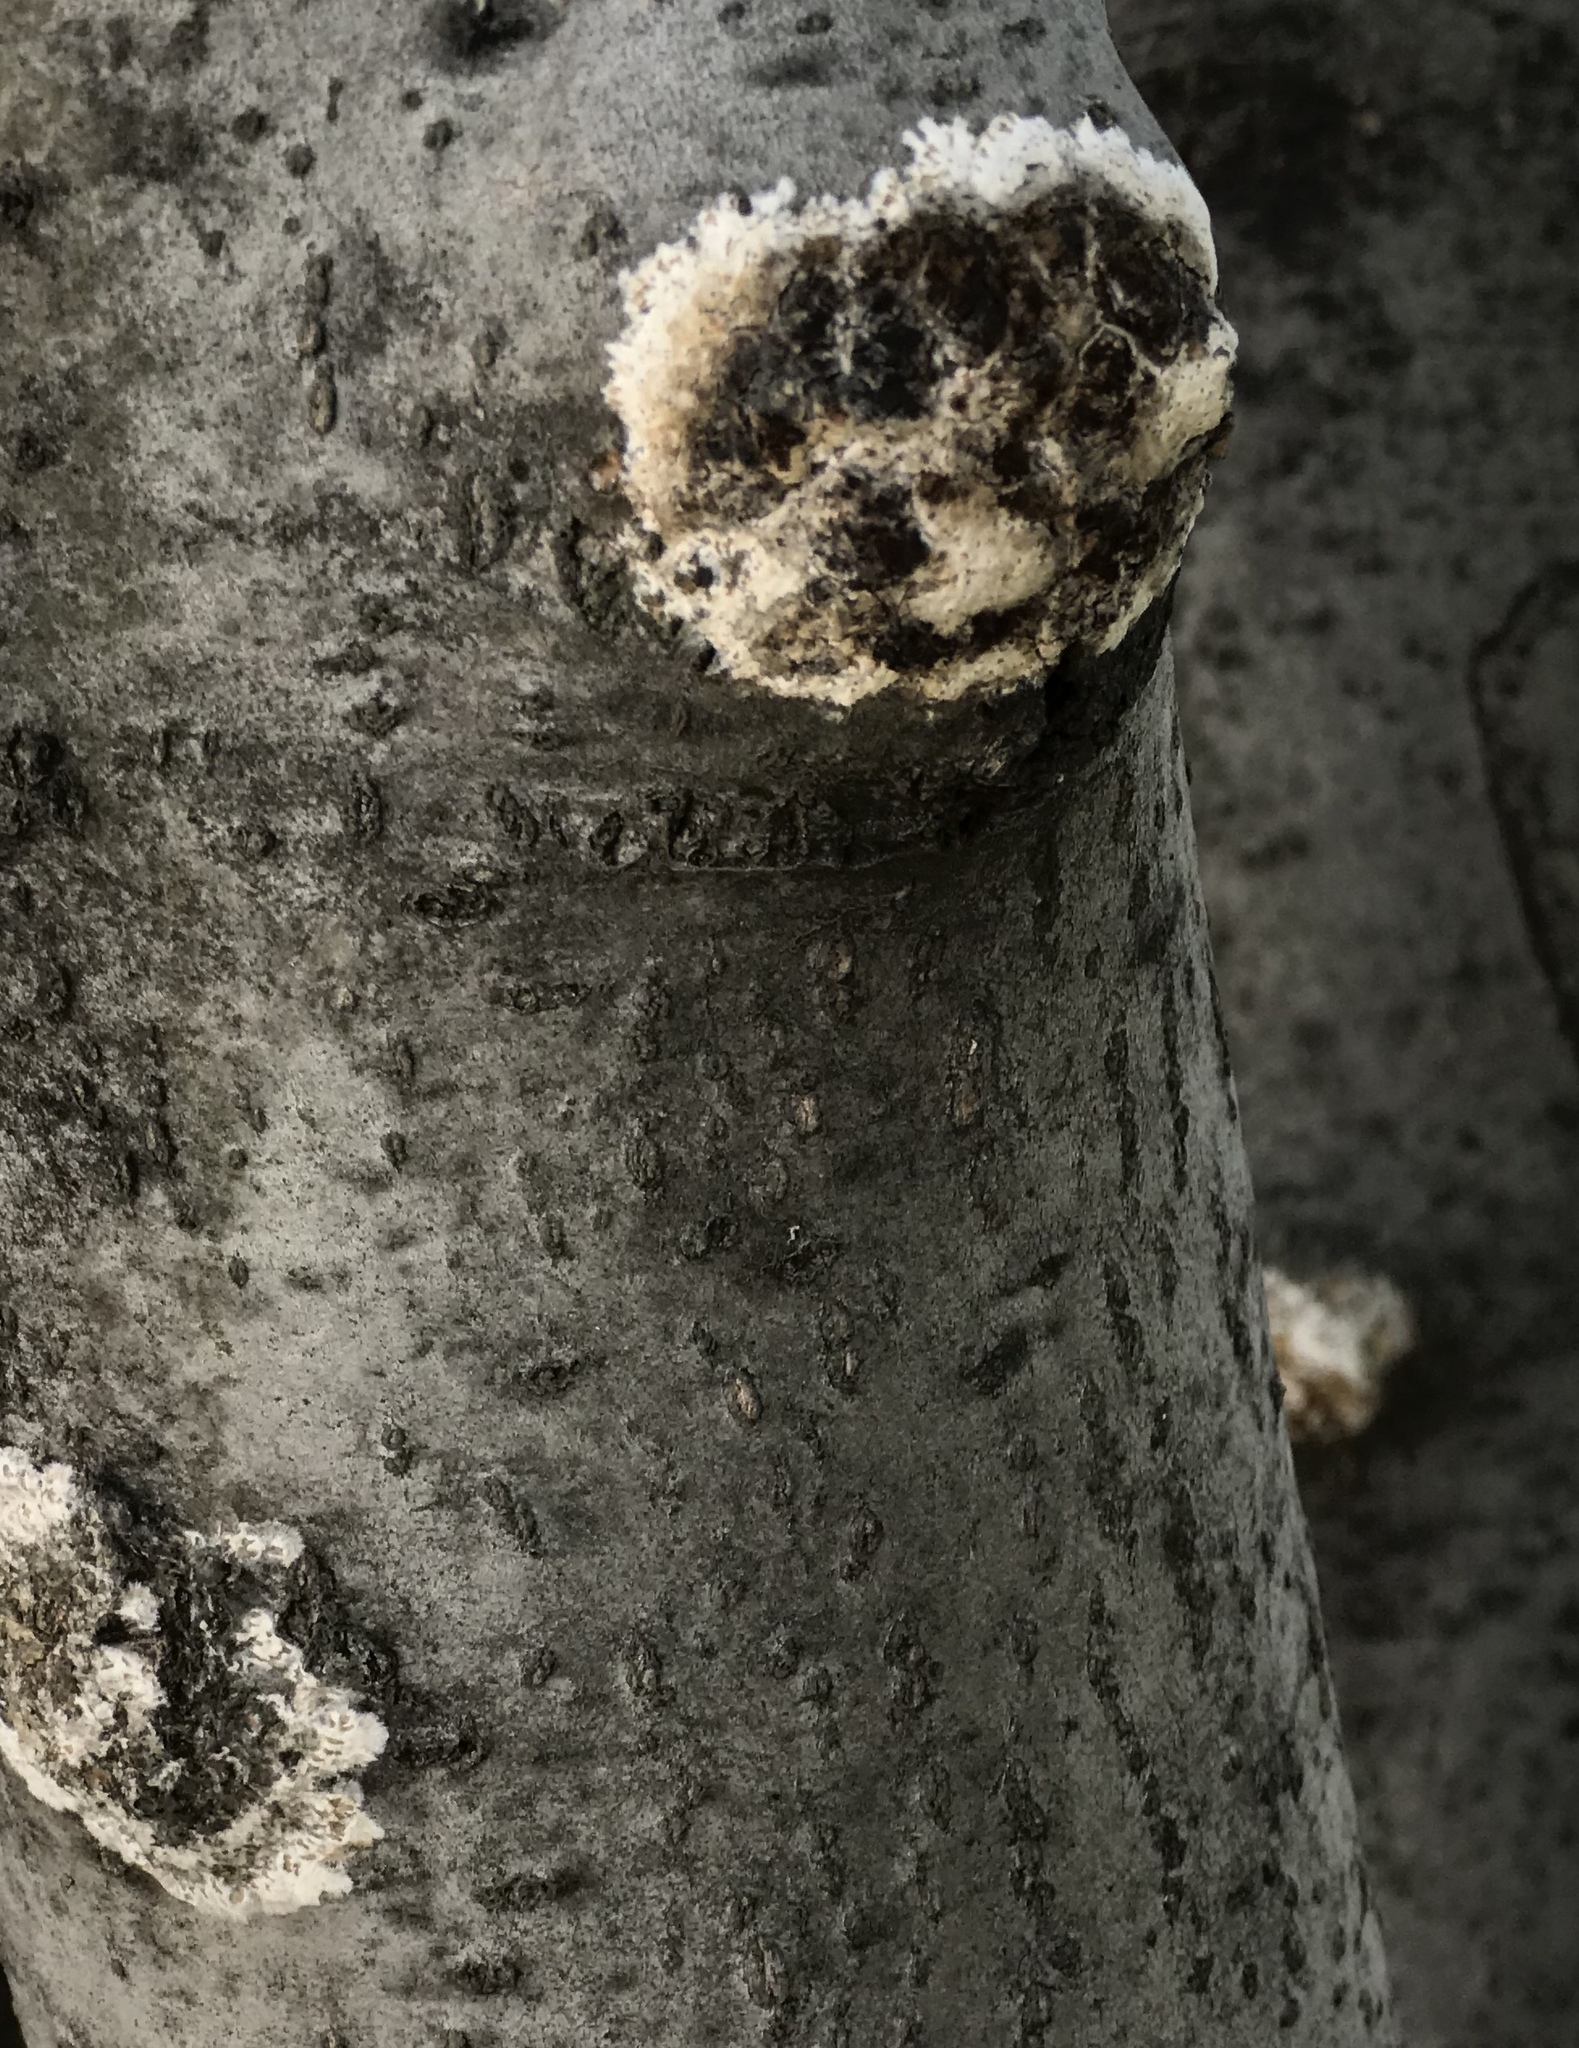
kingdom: Fungi
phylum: Basidiomycota
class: Agaricomycetes
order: Russulales
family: Peniophoraceae
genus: Peniophora
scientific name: Peniophora albobadia
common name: Giraffe spots
